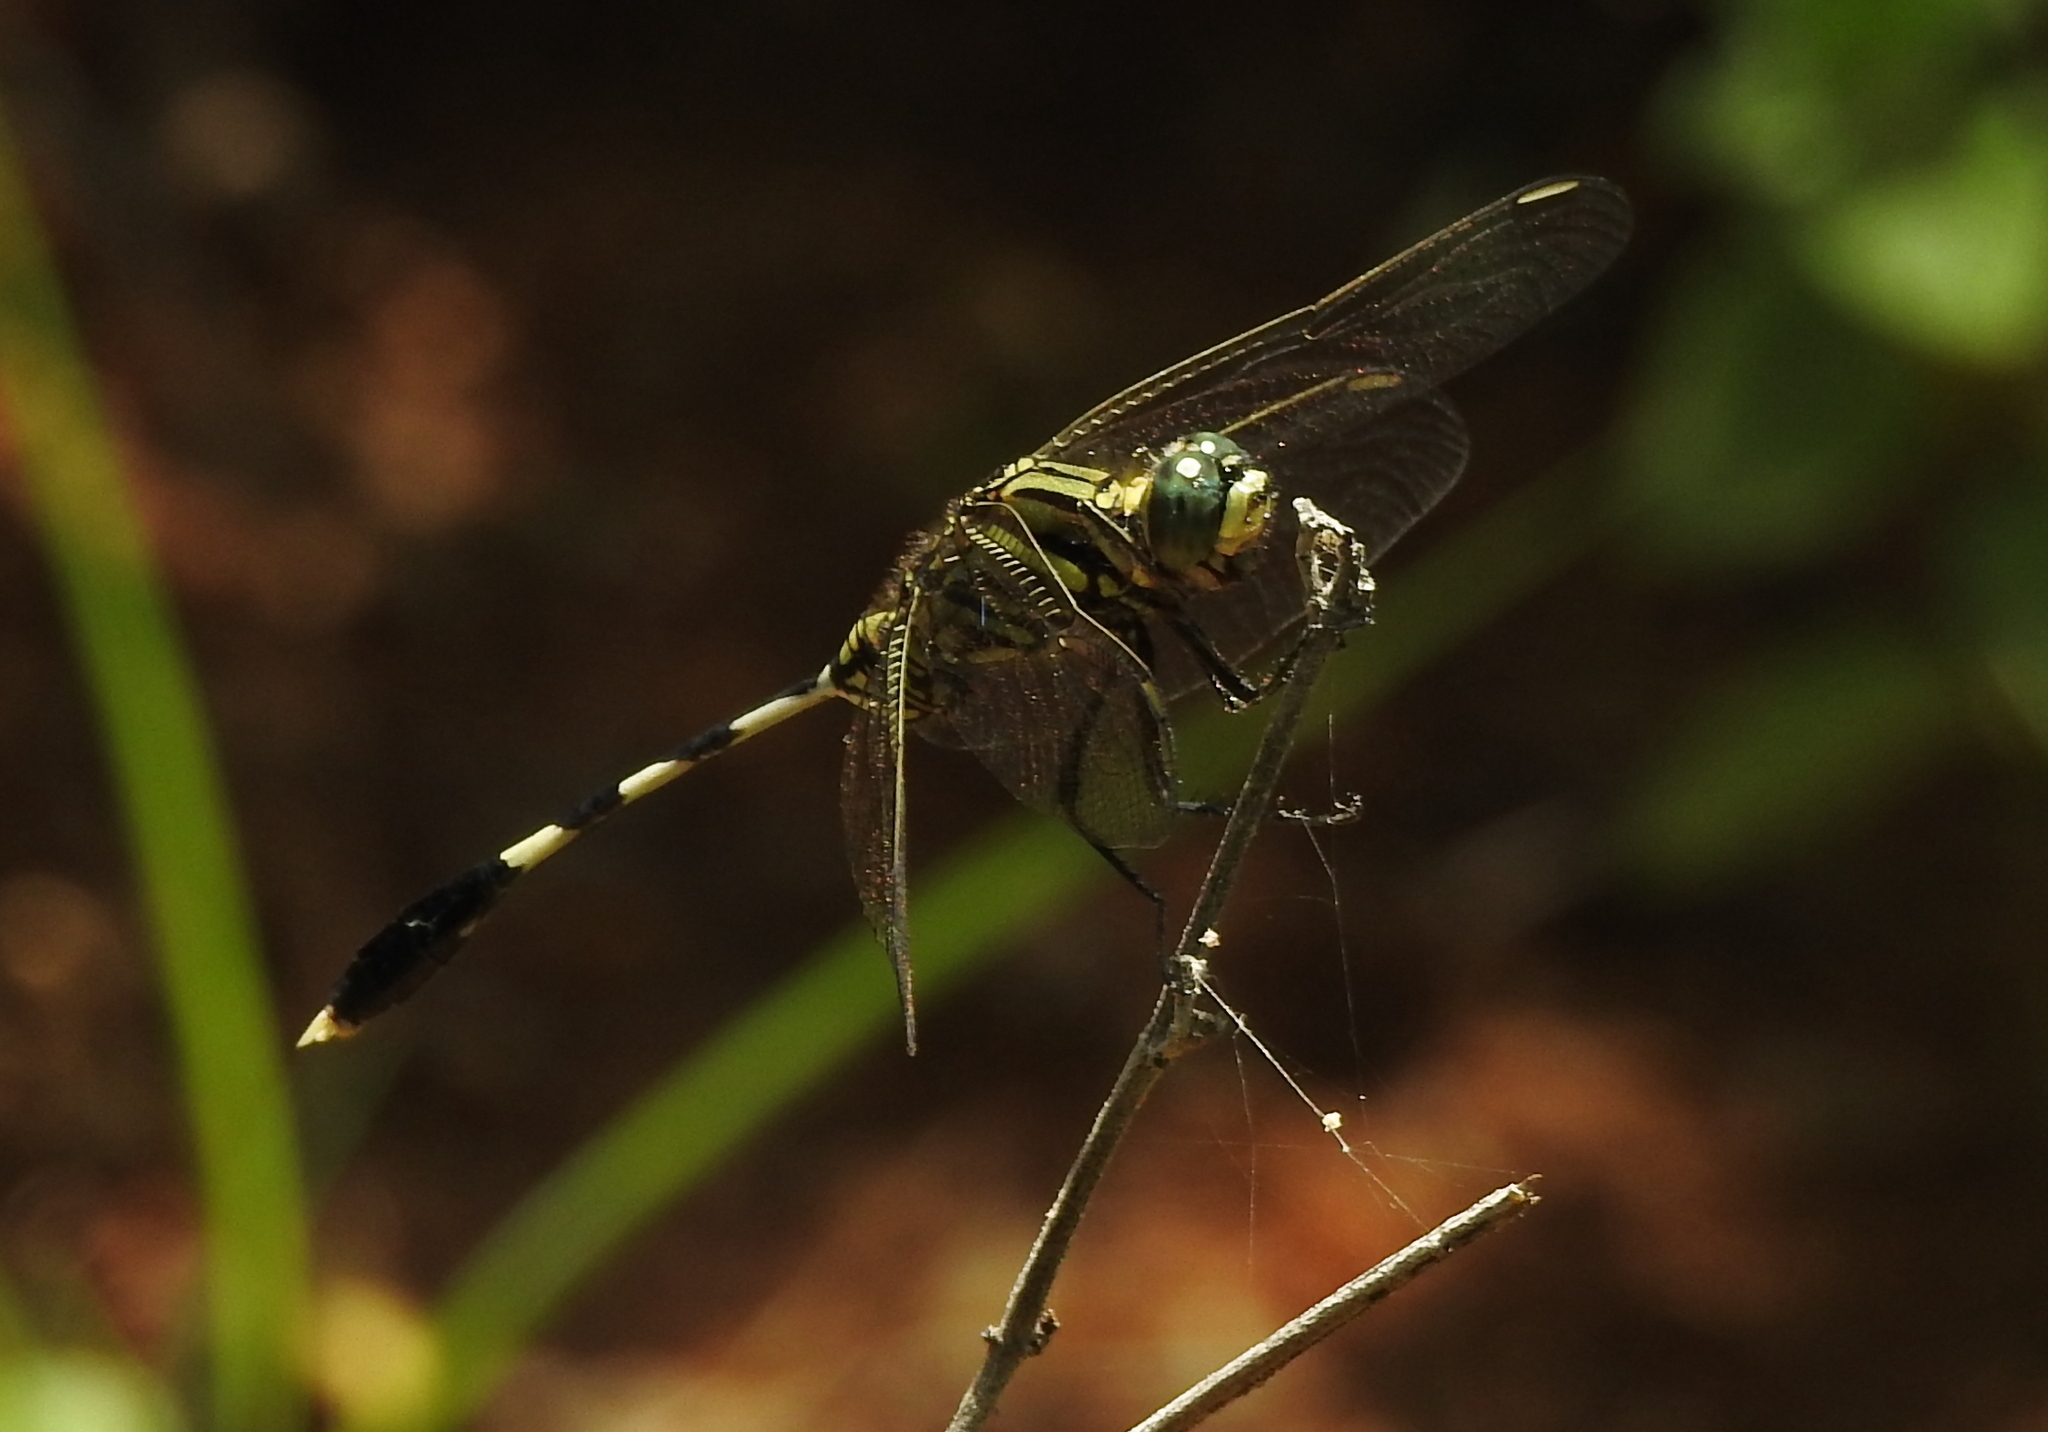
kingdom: Animalia
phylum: Arthropoda
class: Insecta
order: Odonata
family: Libellulidae
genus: Orthetrum
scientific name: Orthetrum sabina
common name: Slender skimmer
